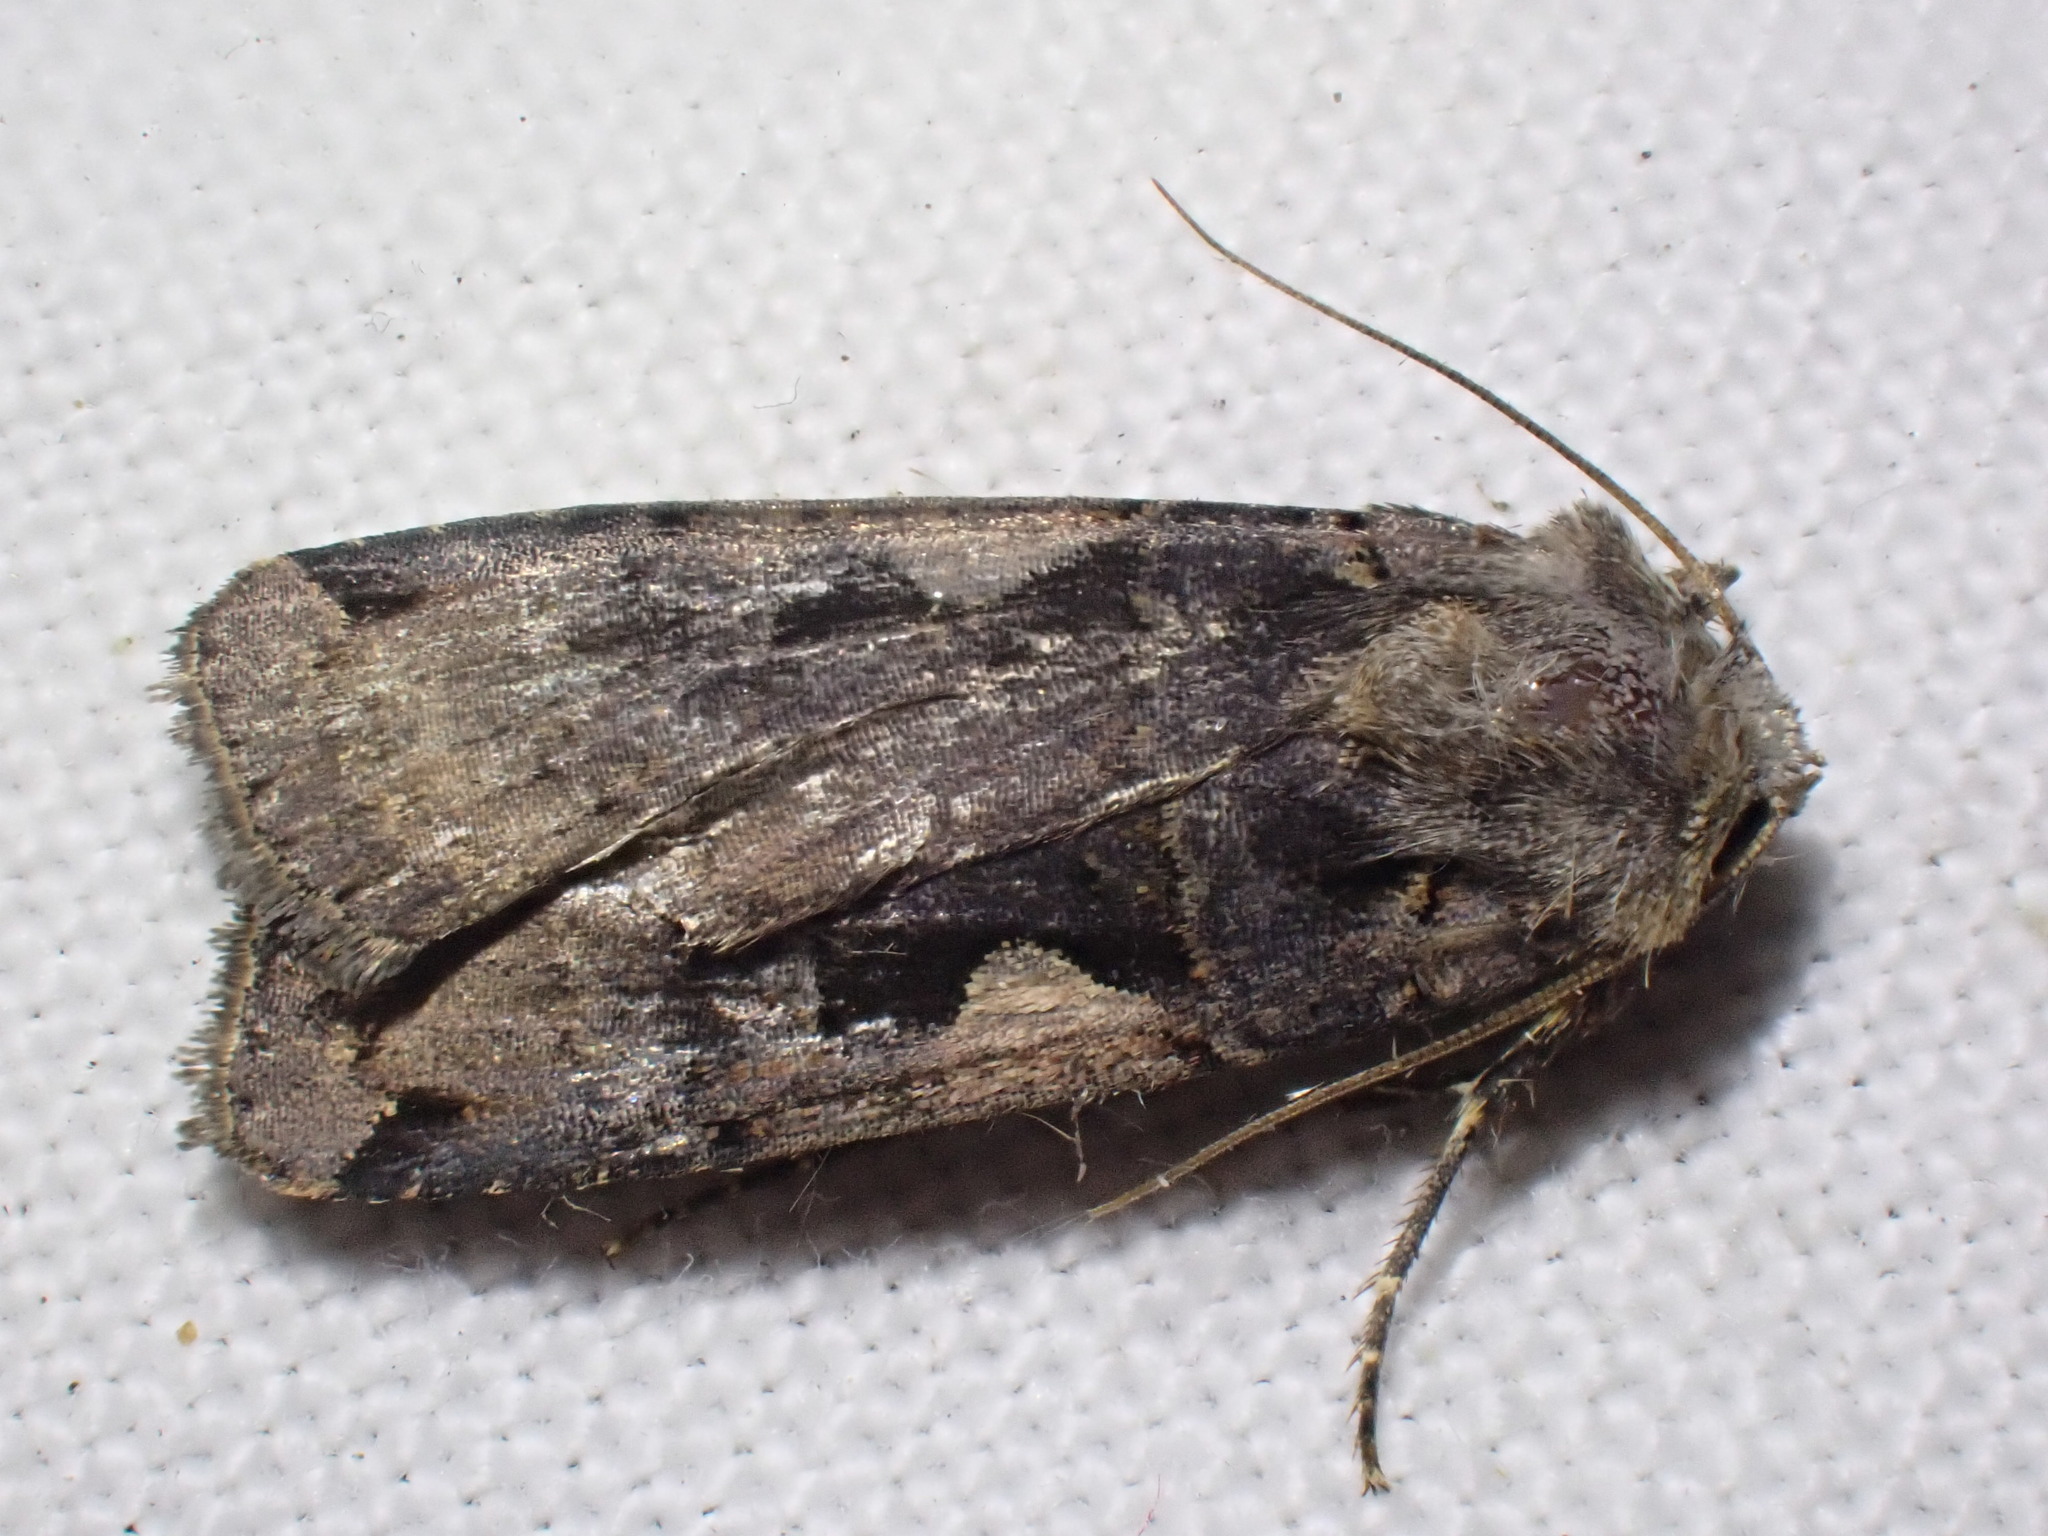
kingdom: Animalia
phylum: Arthropoda
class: Insecta
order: Lepidoptera
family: Noctuidae
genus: Xestia
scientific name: Xestia c-nigrum
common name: Setaceous hebrew character
